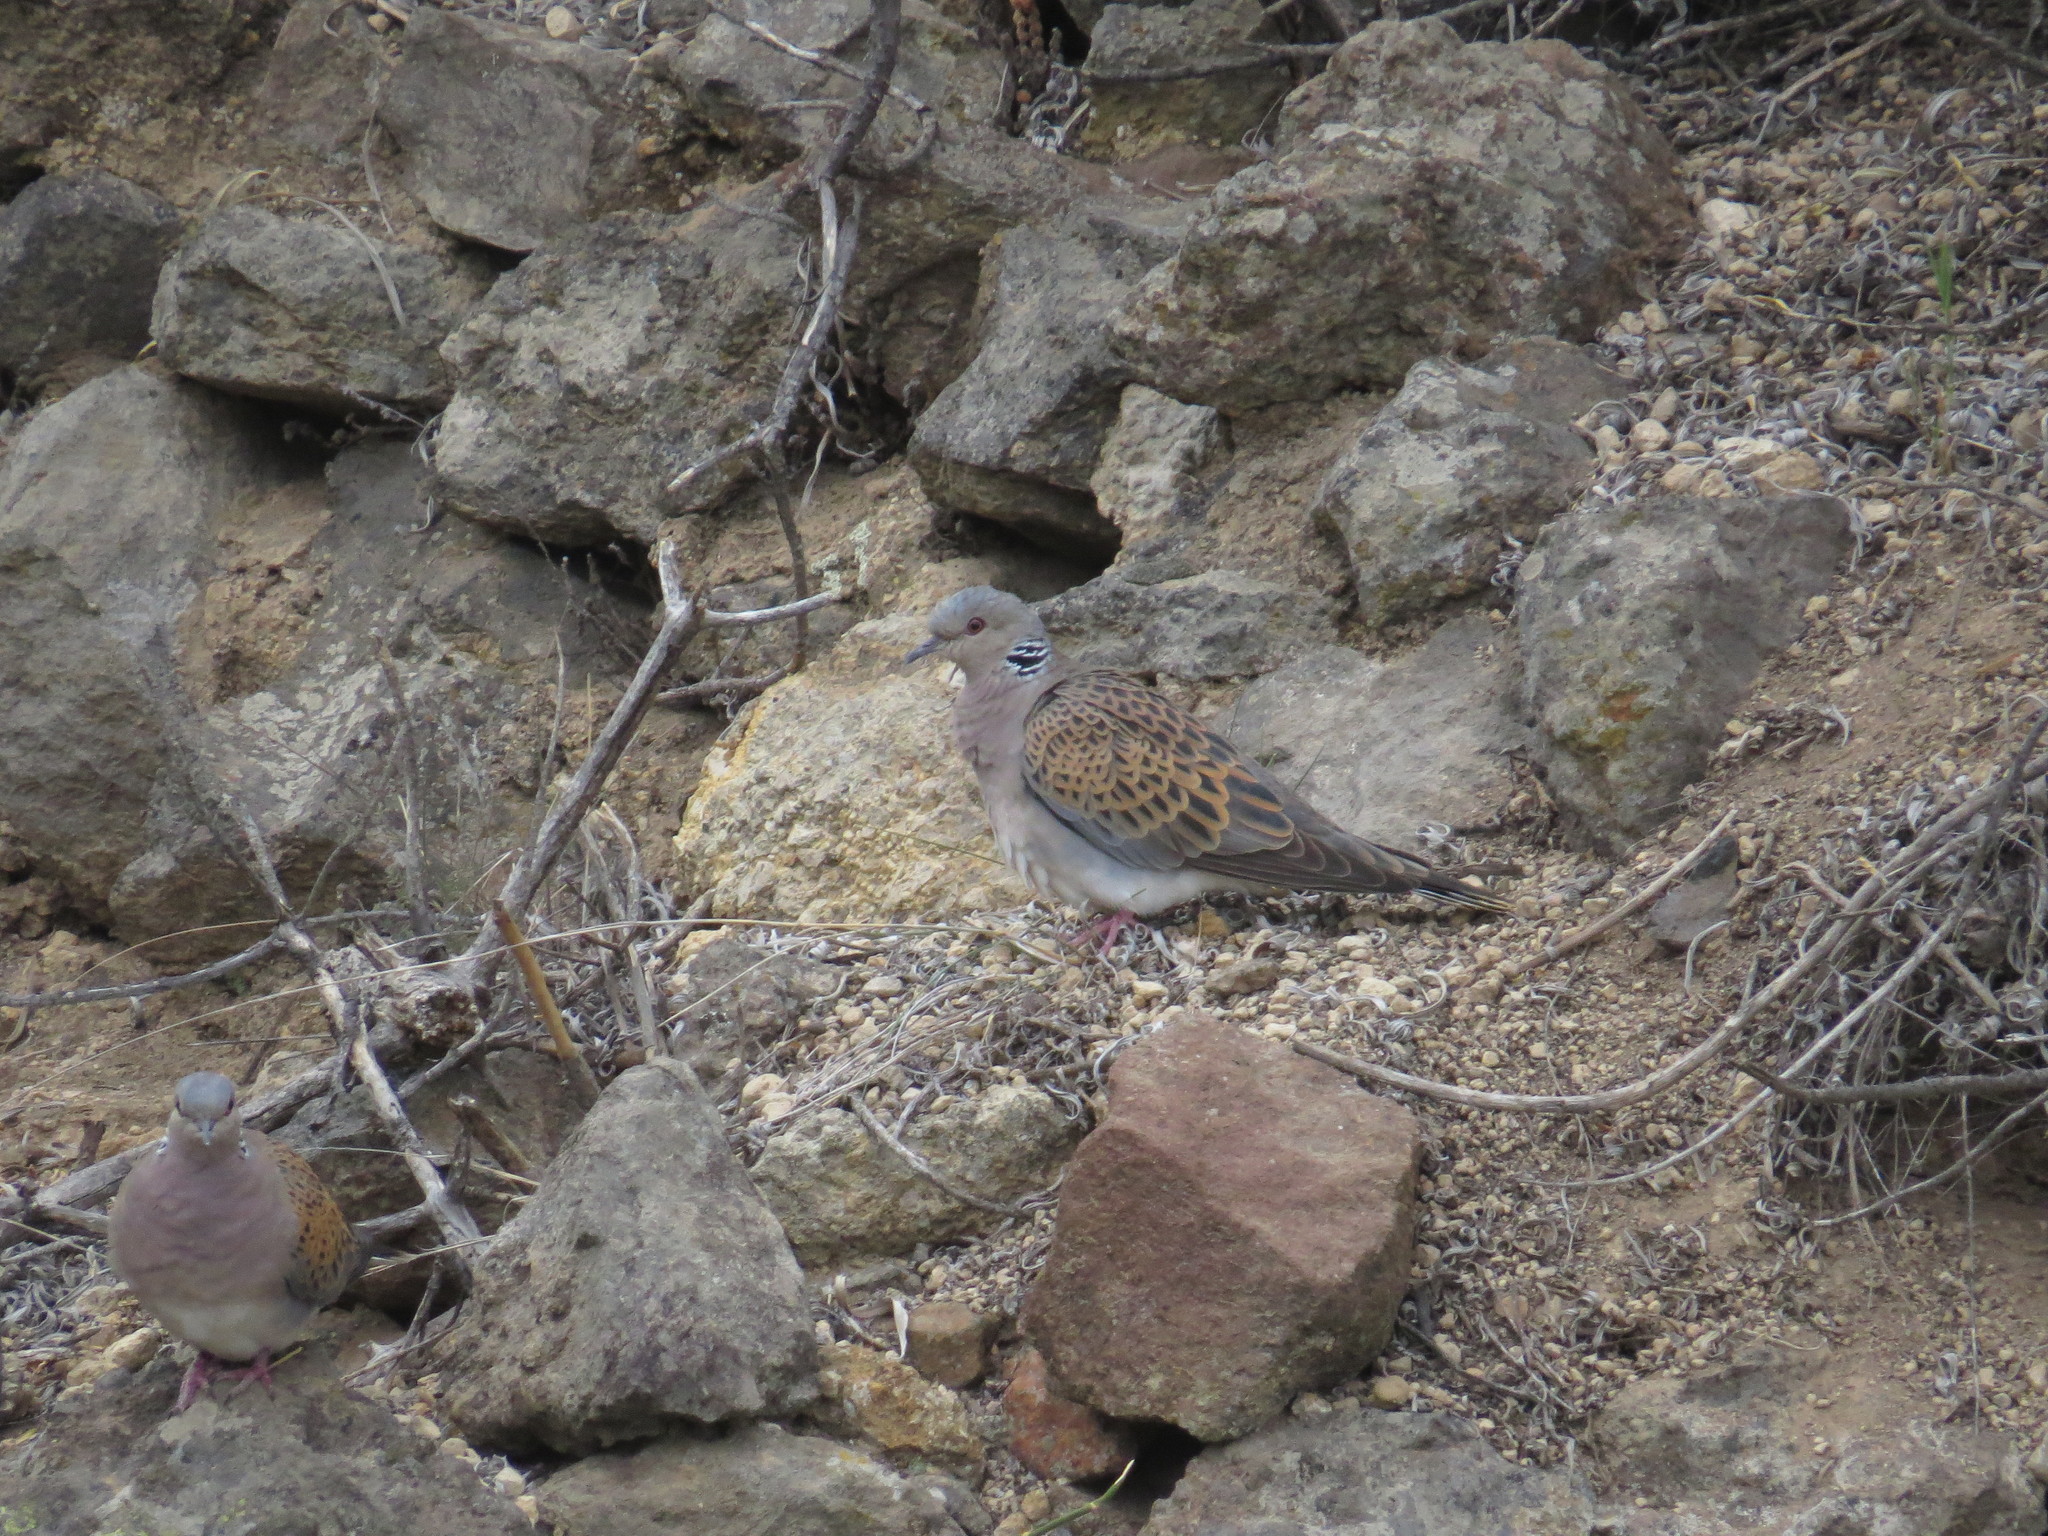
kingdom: Animalia
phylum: Chordata
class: Aves
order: Columbiformes
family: Columbidae
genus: Streptopelia
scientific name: Streptopelia turtur
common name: European turtle dove
